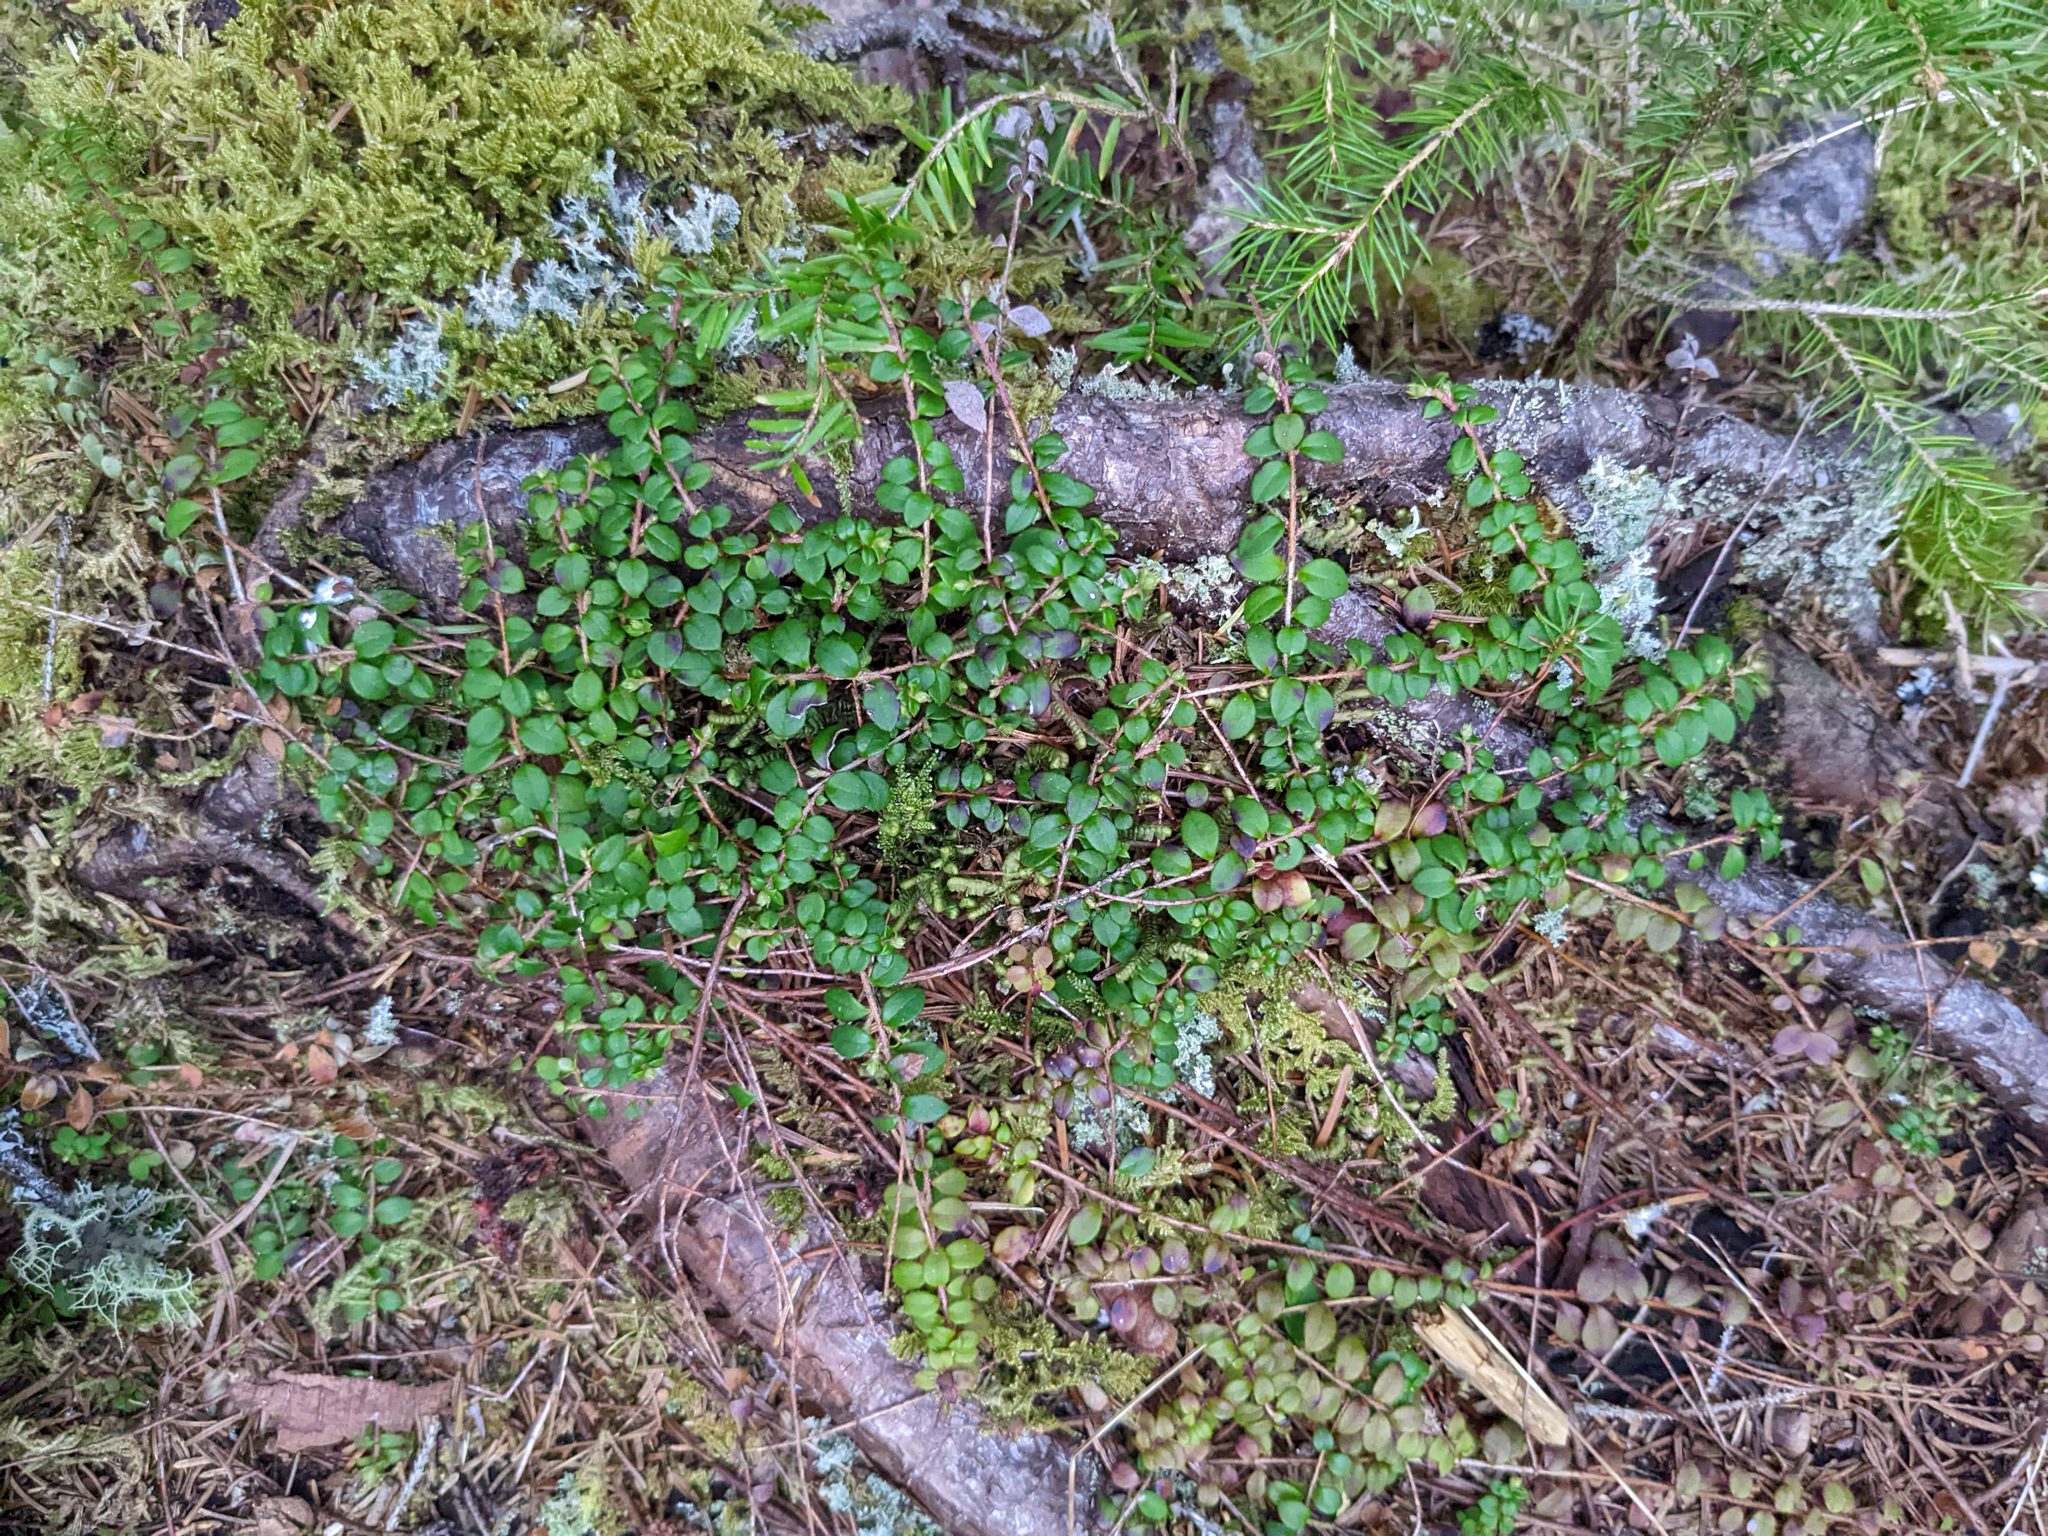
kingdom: Plantae
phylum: Tracheophyta
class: Magnoliopsida
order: Ericales
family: Ericaceae
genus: Gaultheria
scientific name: Gaultheria hispidula
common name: Cancer wintergreen
